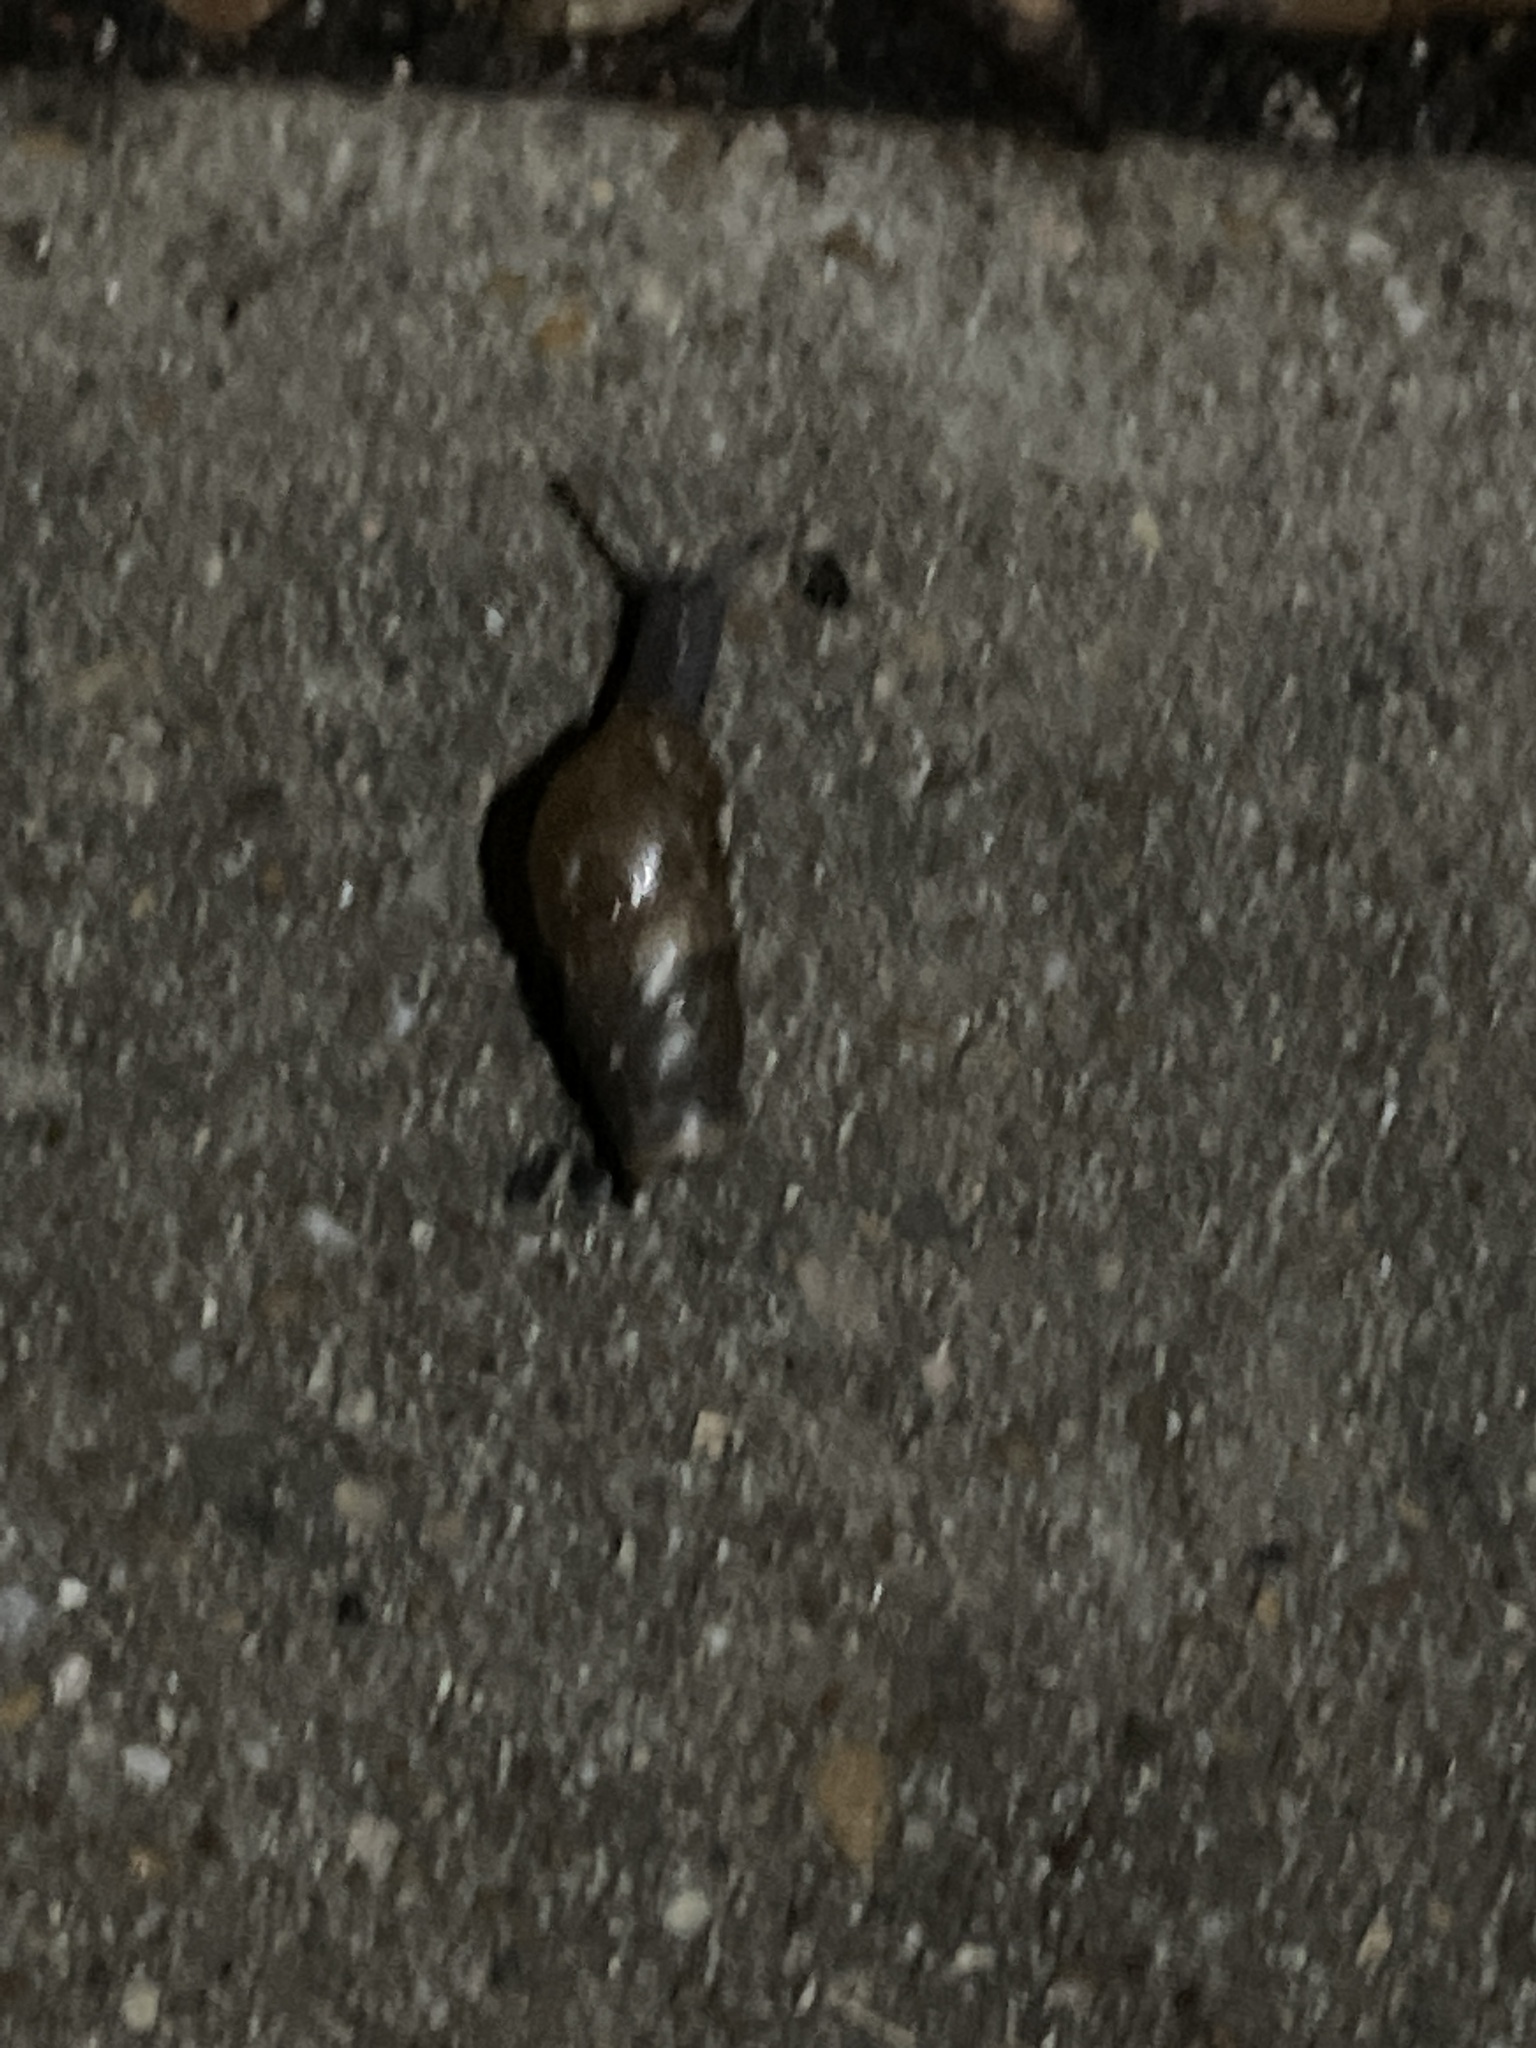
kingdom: Animalia
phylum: Mollusca
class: Gastropoda
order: Stylommatophora
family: Achatinidae
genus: Rumina
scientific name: Rumina decollata
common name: Decollate snail
